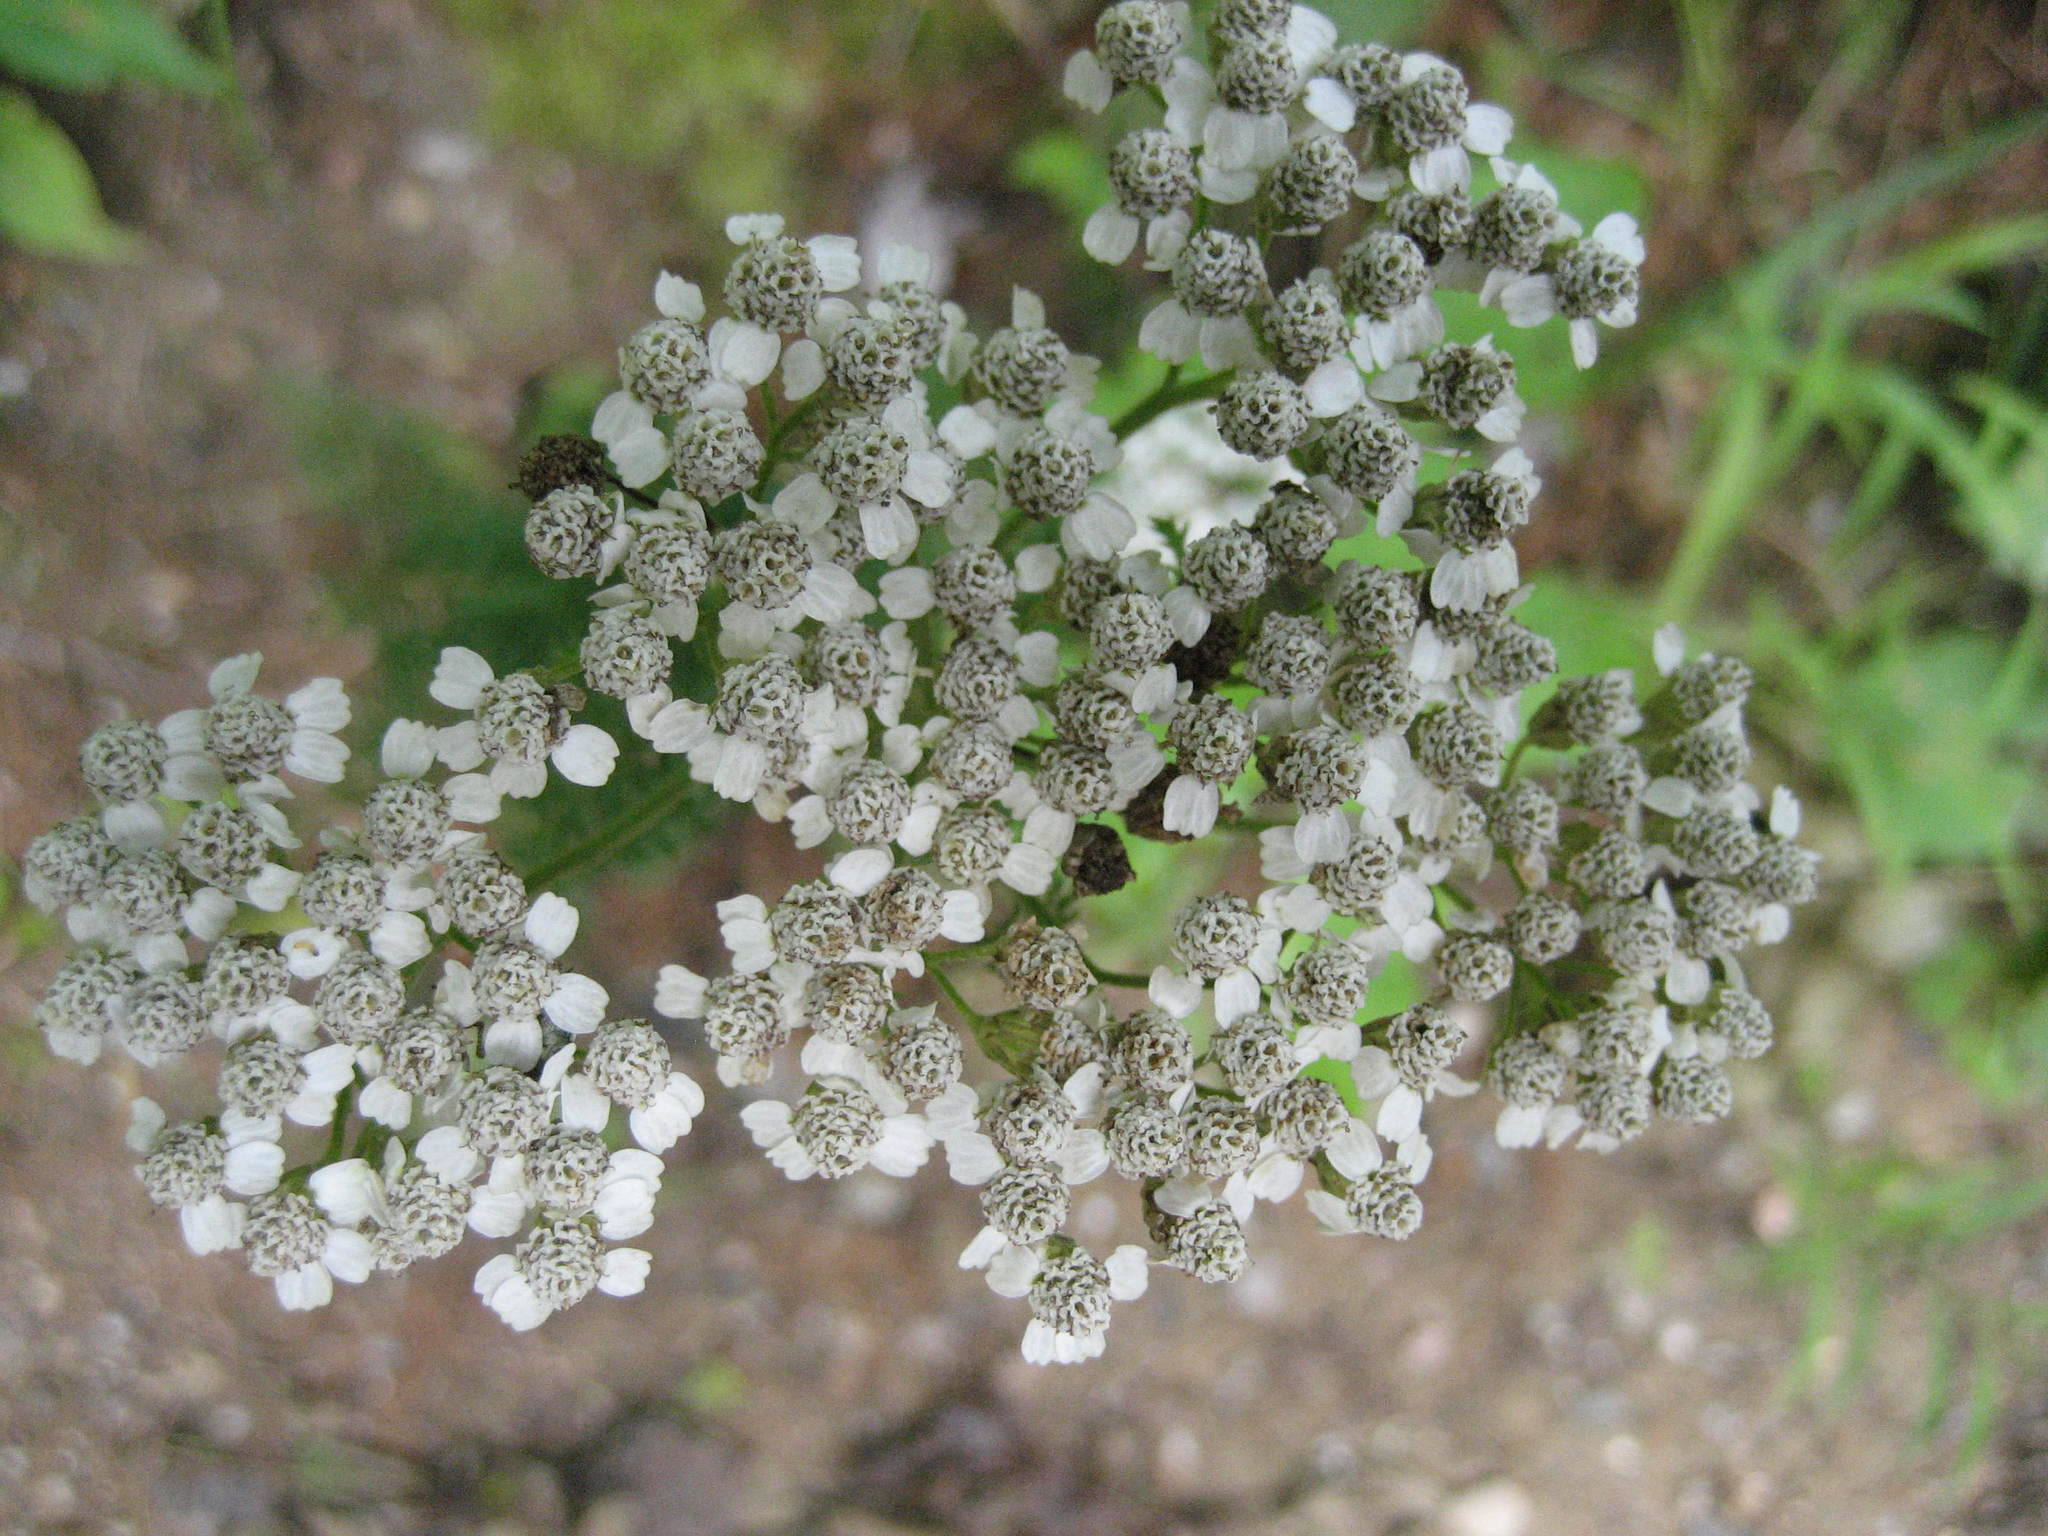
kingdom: Plantae
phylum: Tracheophyta
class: Magnoliopsida
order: Asterales
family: Asteraceae
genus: Achillea
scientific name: Achillea millefolium
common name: Yarrow
